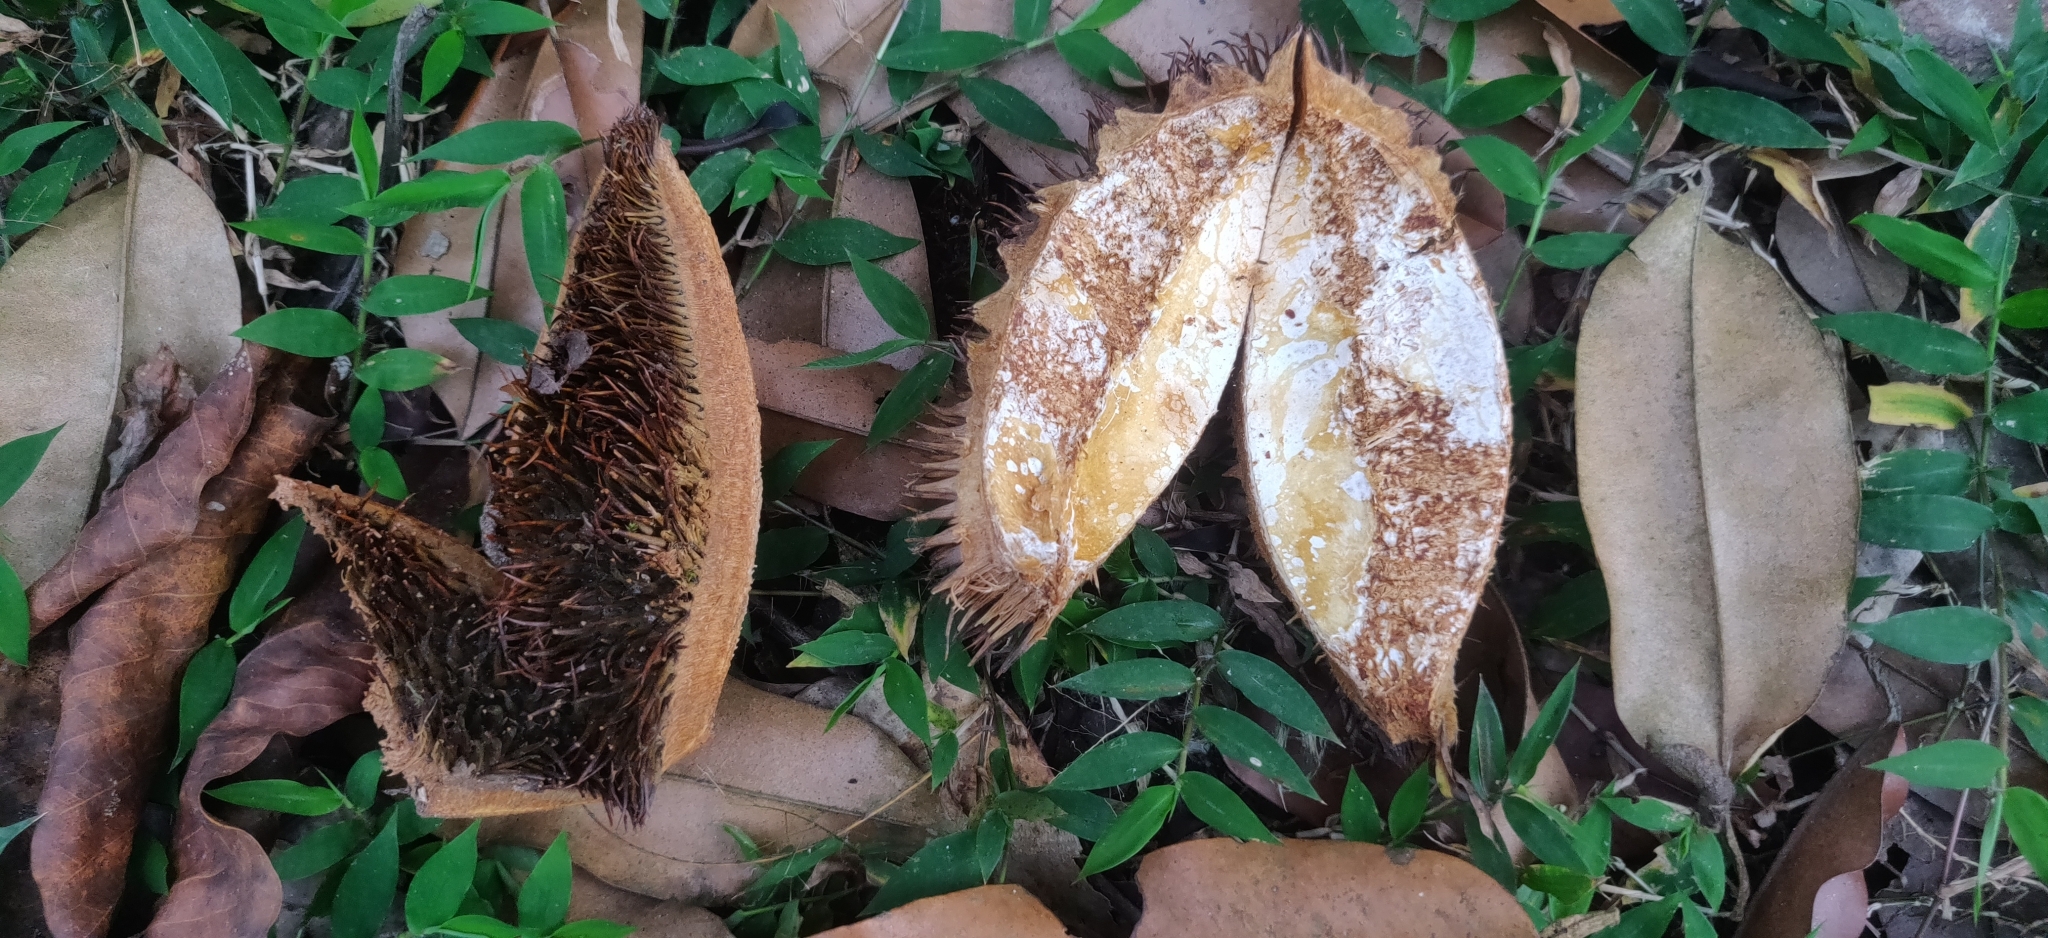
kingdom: Plantae
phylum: Tracheophyta
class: Magnoliopsida
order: Malvales
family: Malvaceae
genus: Cullenia
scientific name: Cullenia exarillata
